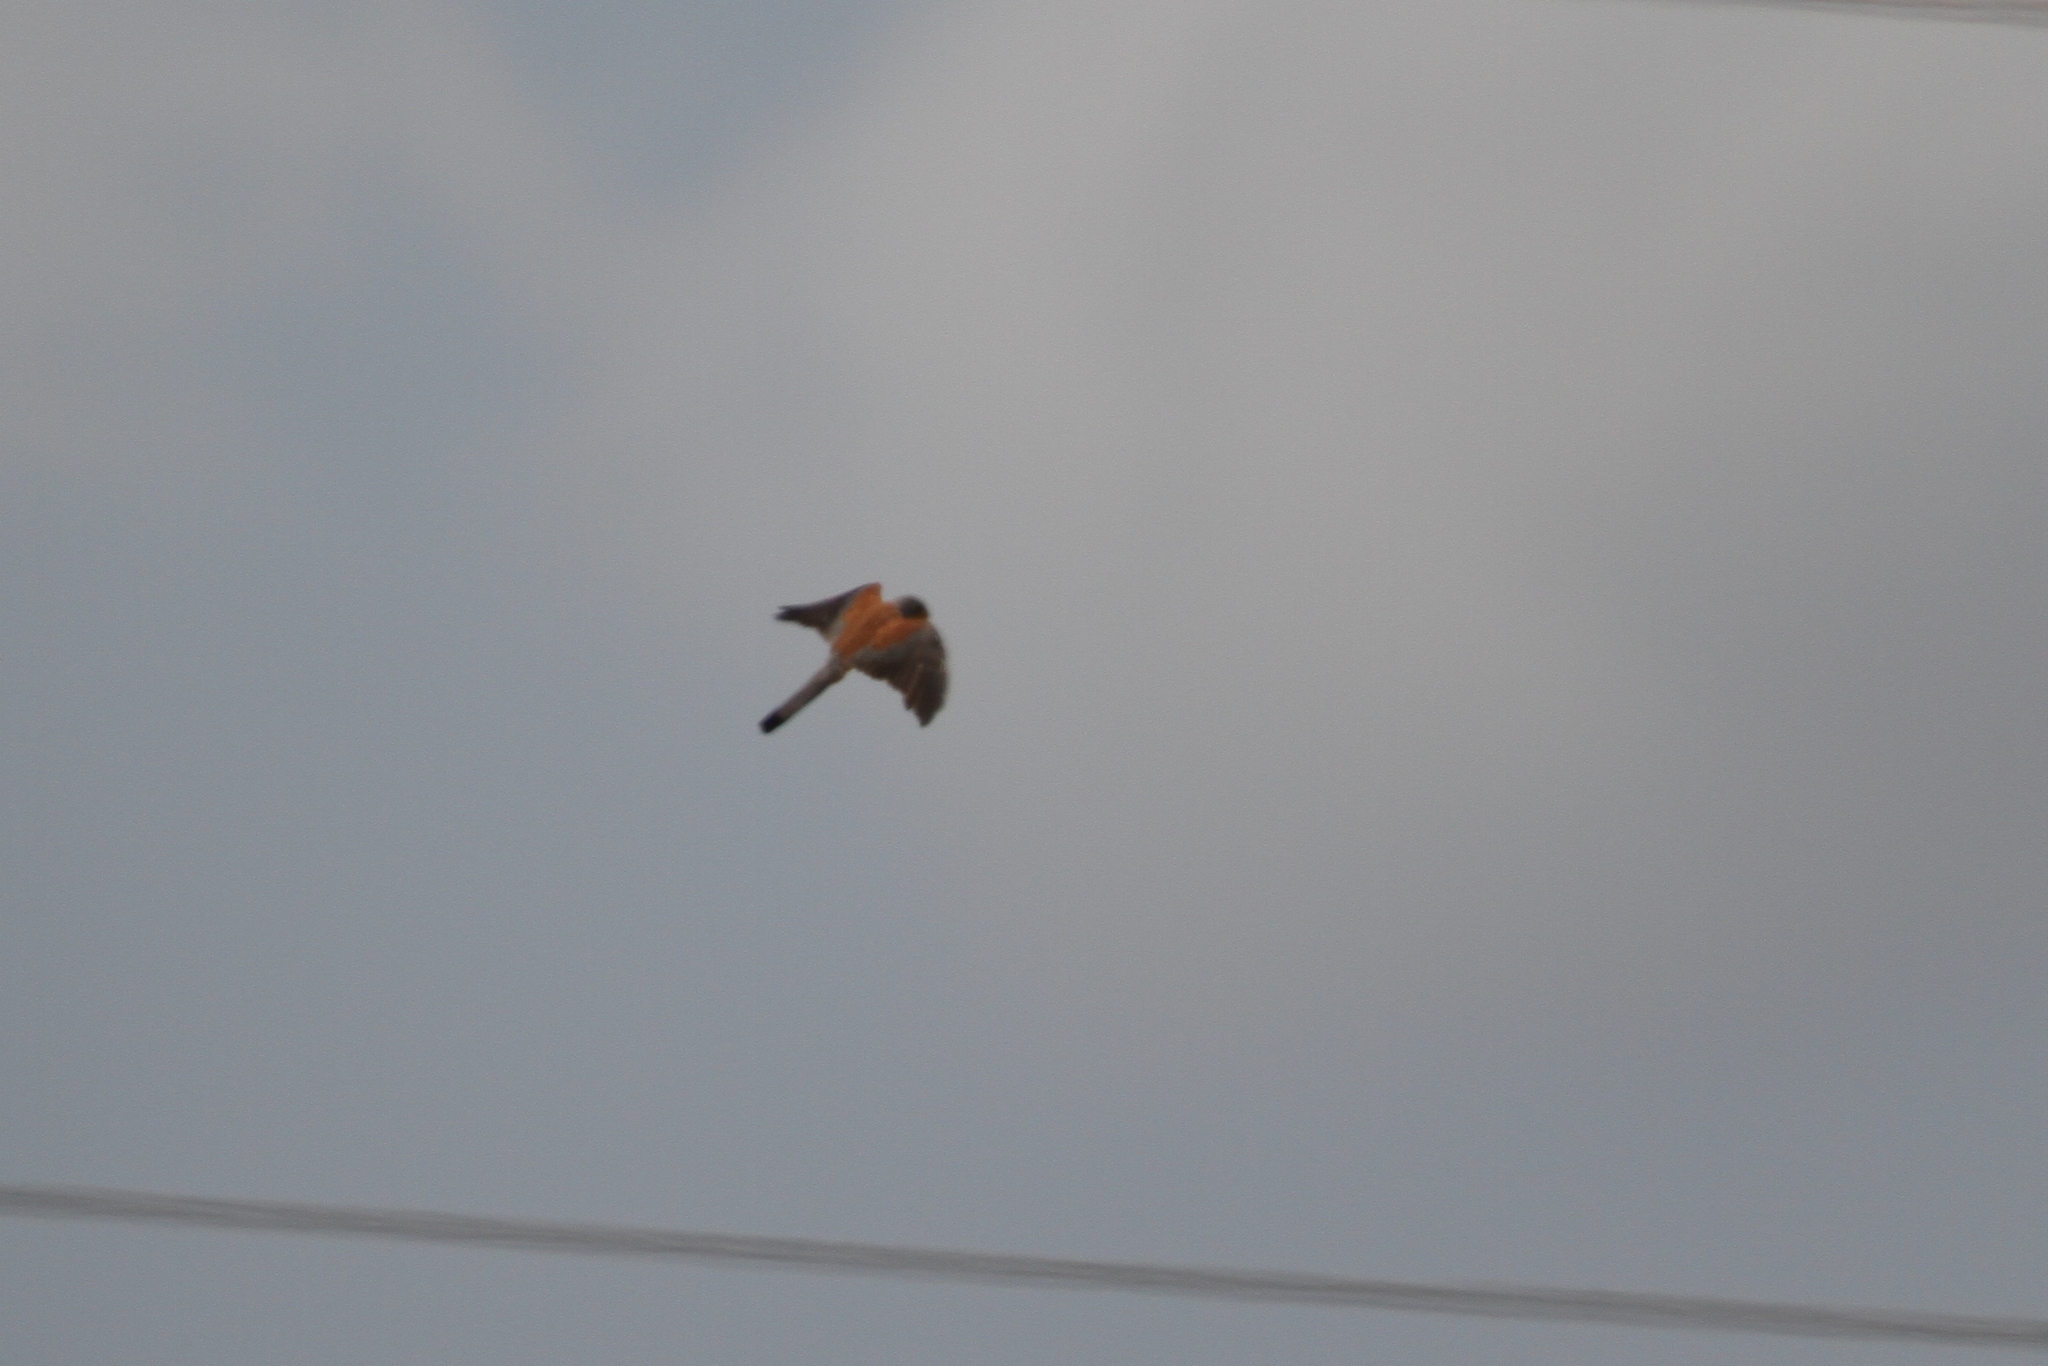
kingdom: Animalia
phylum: Chordata
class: Aves
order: Falconiformes
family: Falconidae
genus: Falco
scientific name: Falco naumanni
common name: Lesser kestrel
